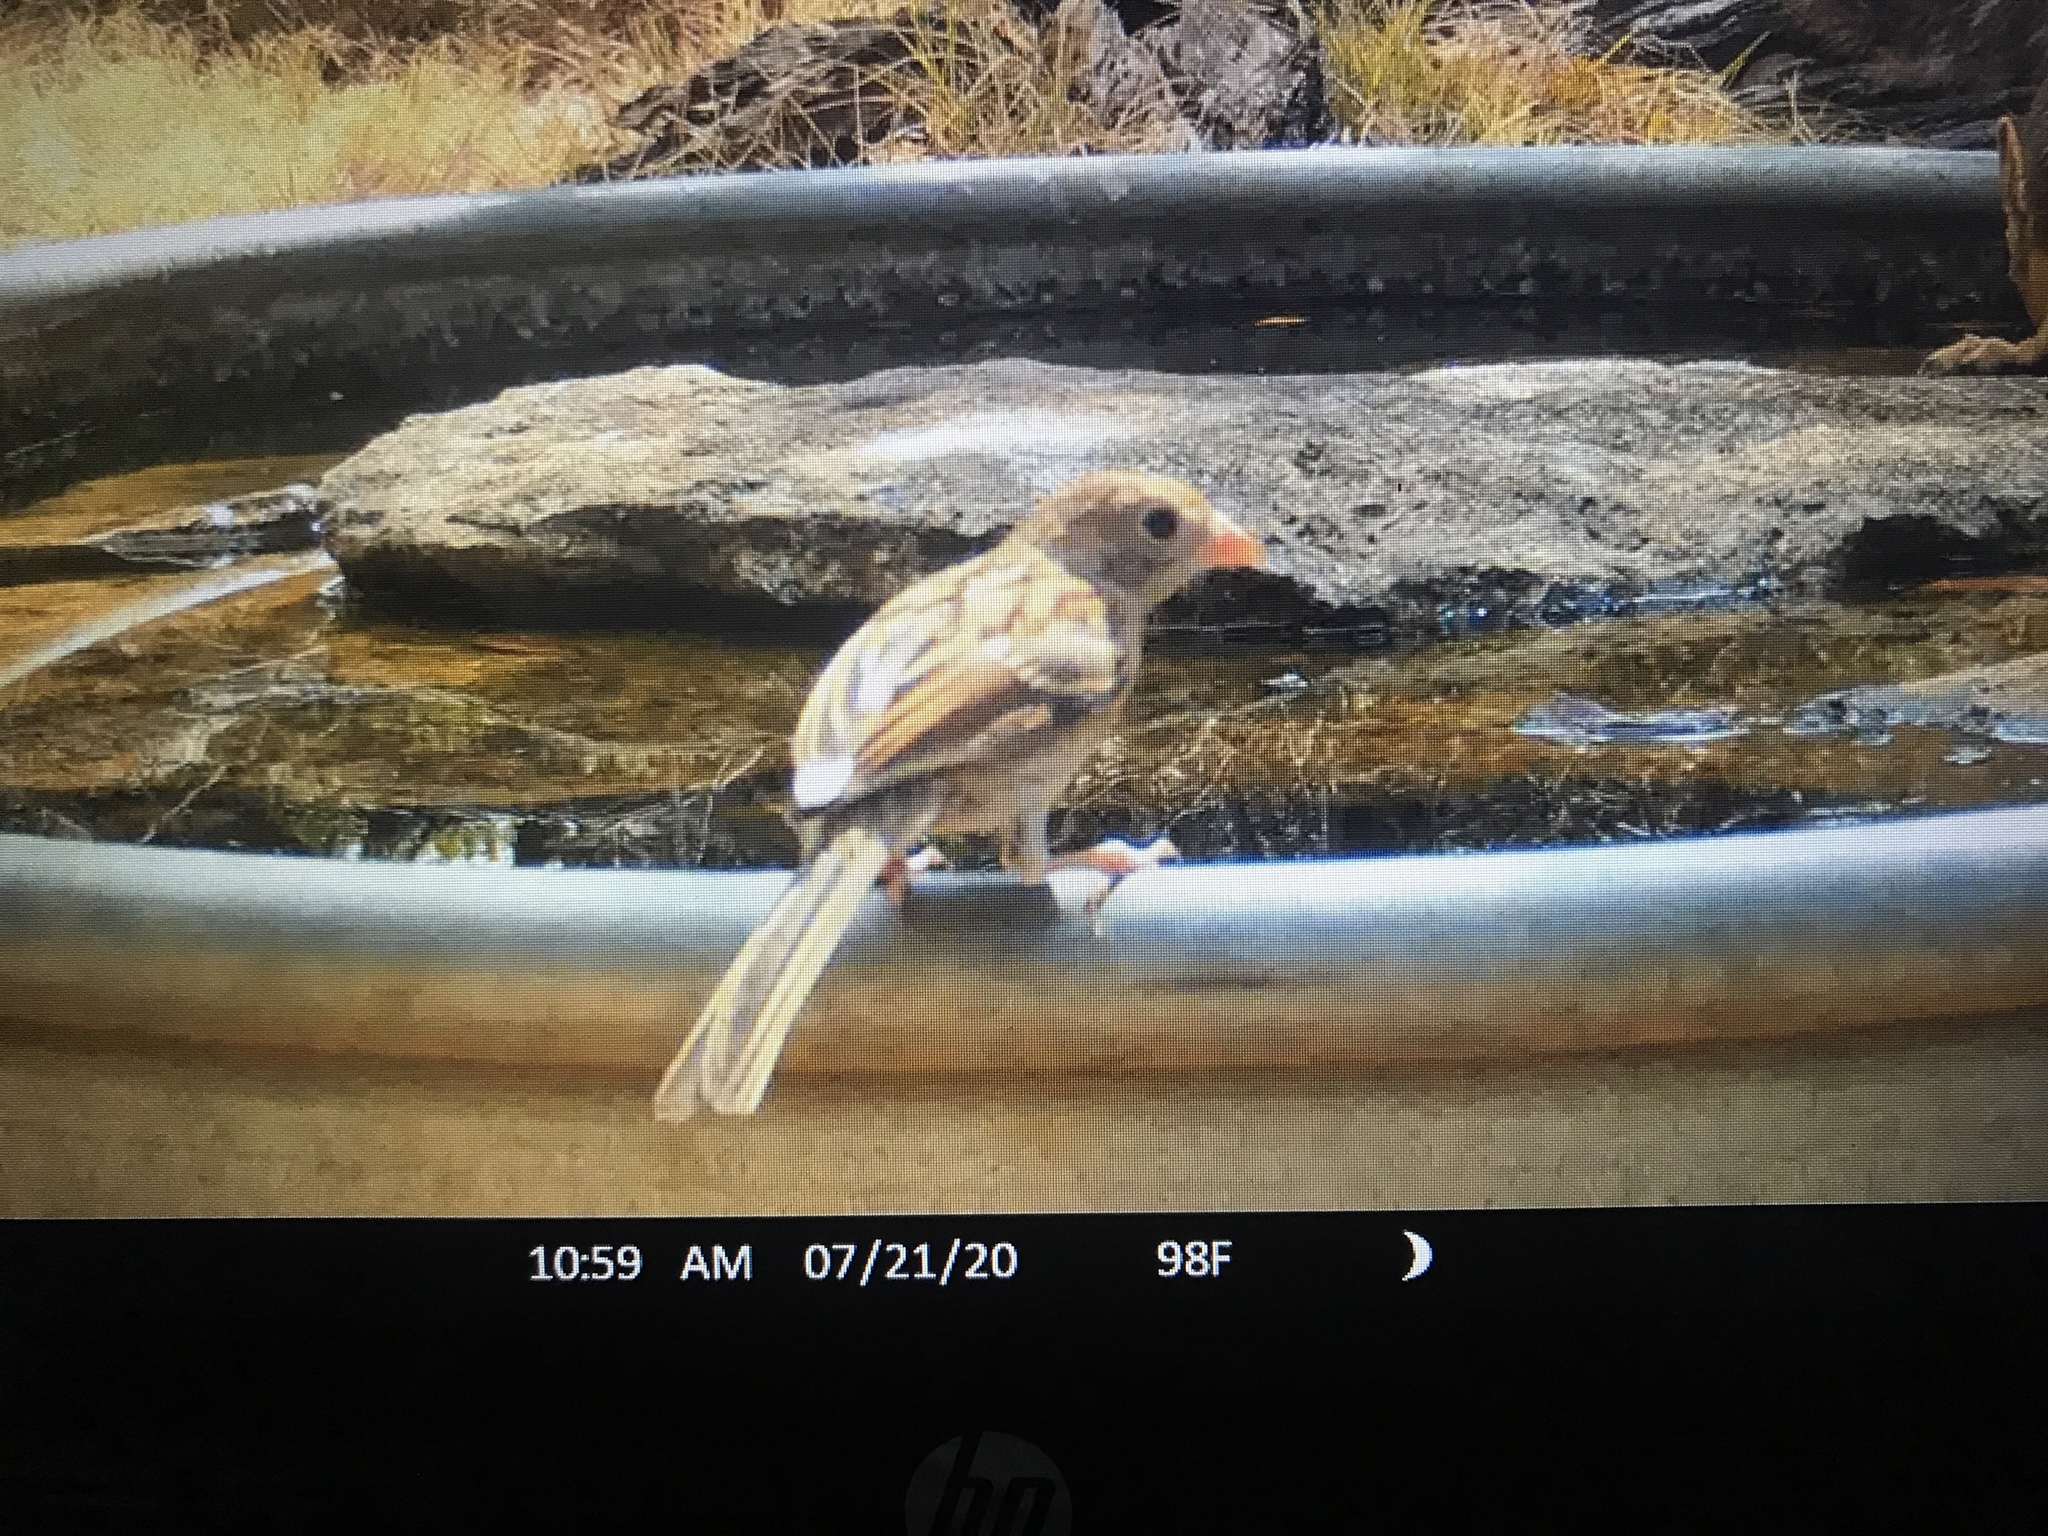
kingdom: Animalia
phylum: Chordata
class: Aves
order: Passeriformes
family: Passerellidae
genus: Spizella
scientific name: Spizella pusilla
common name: Field sparrow
